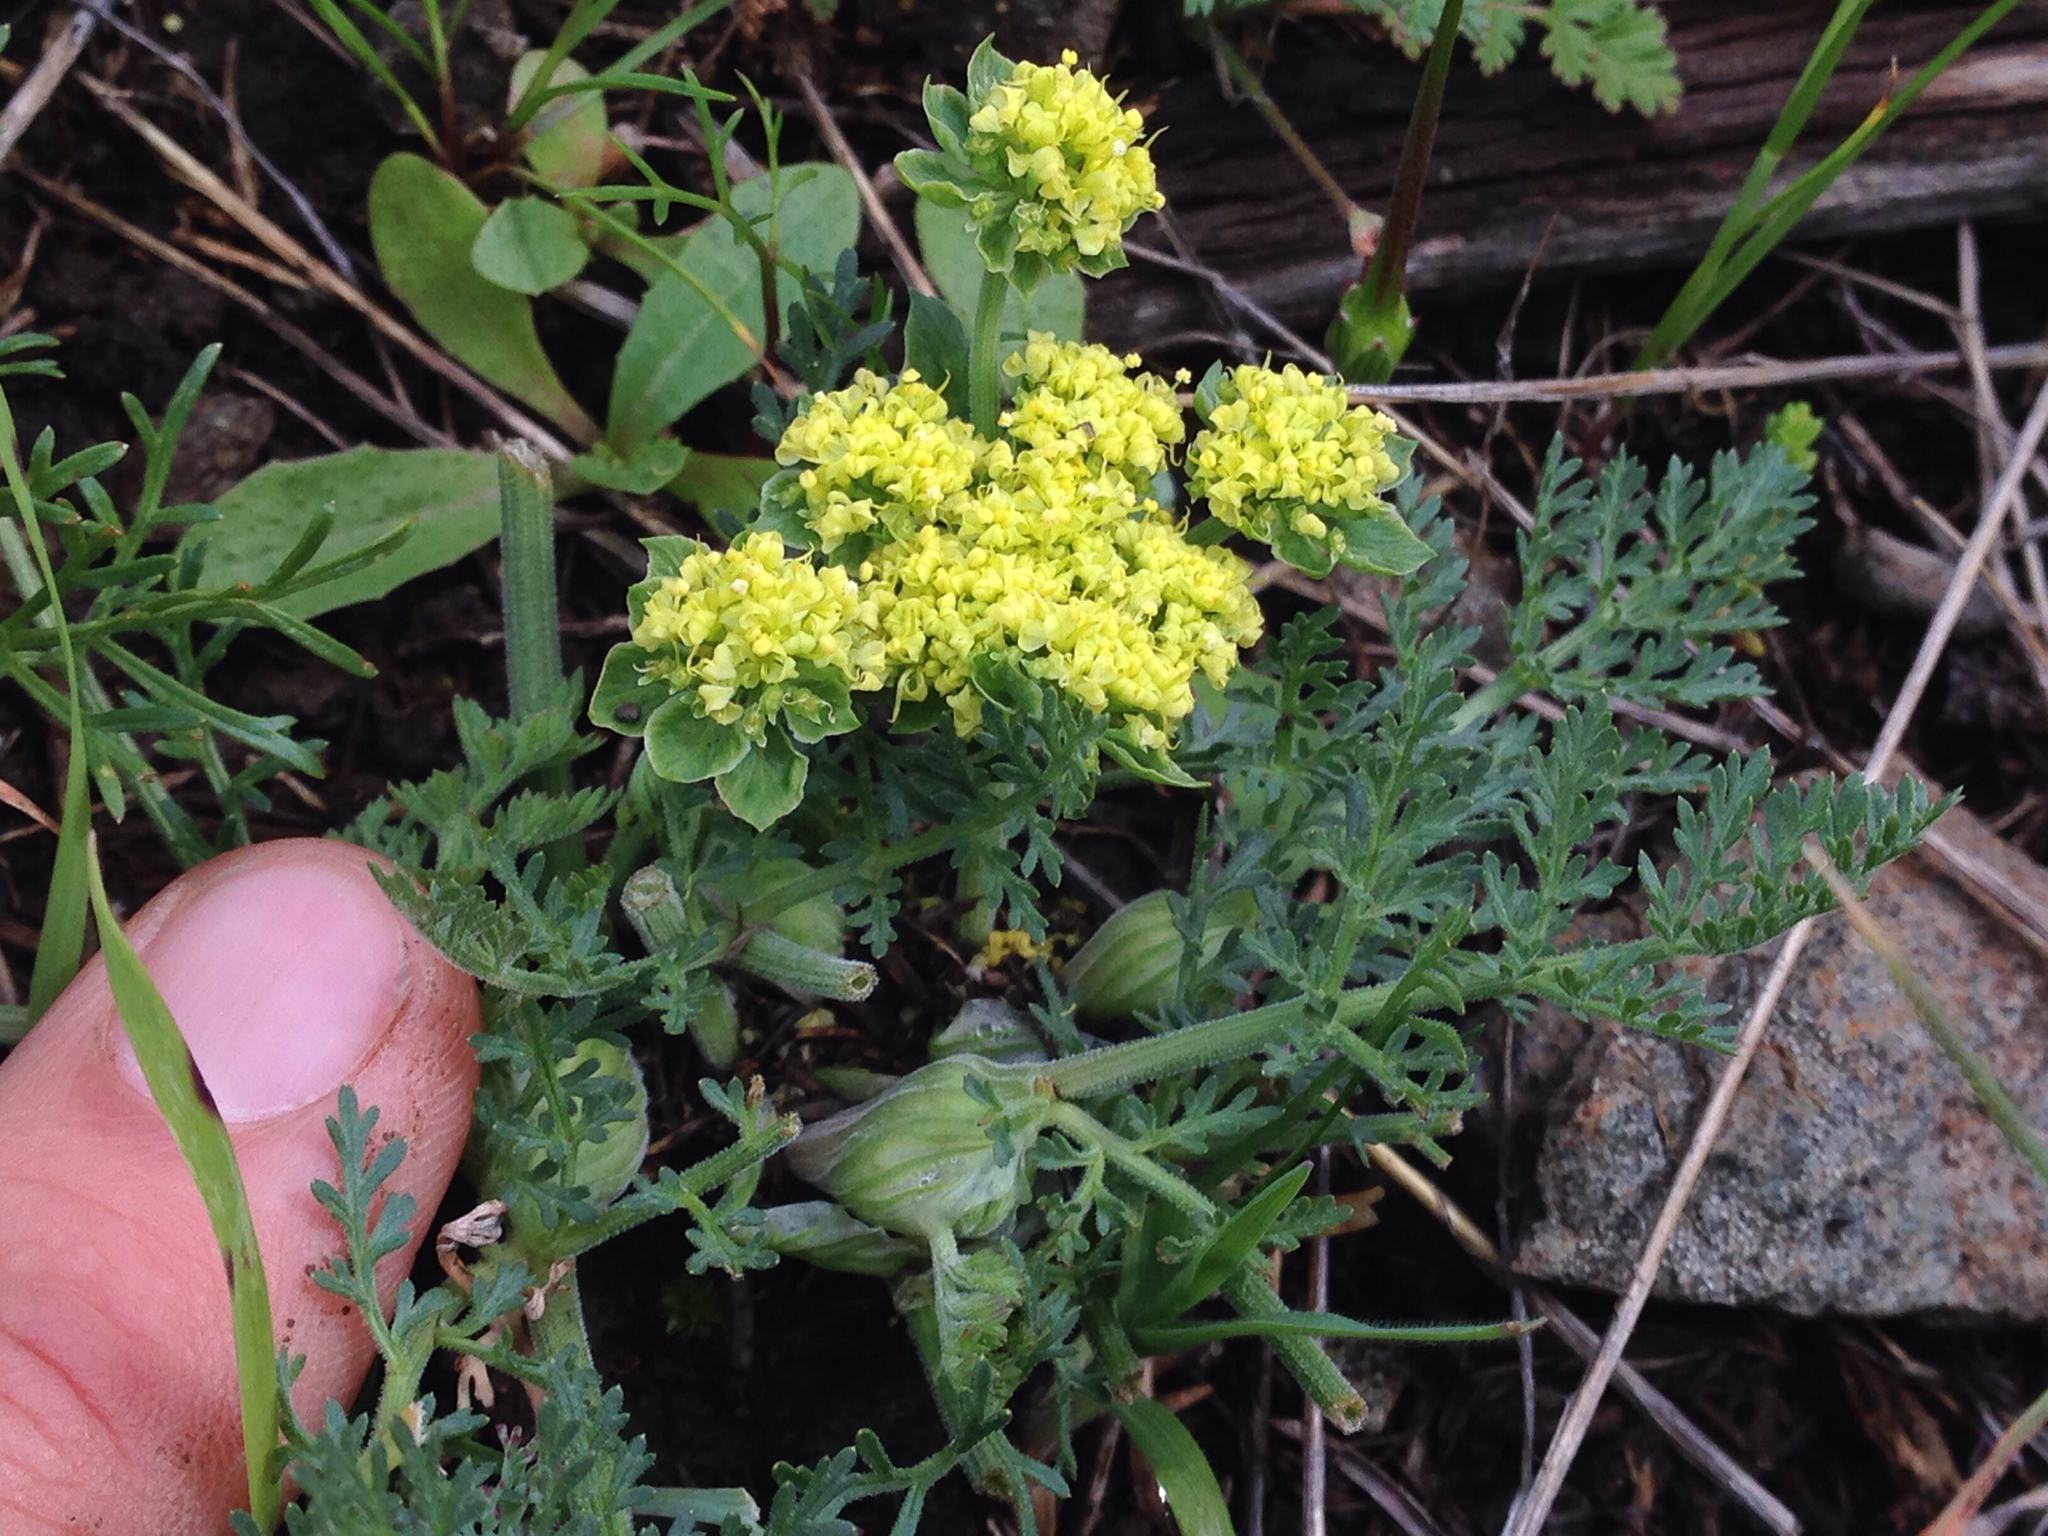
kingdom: Plantae
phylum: Tracheophyta
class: Magnoliopsida
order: Apiales
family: Apiaceae
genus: Lomatium
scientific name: Lomatium utriculatum
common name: Fine-leaf desert-parsley
